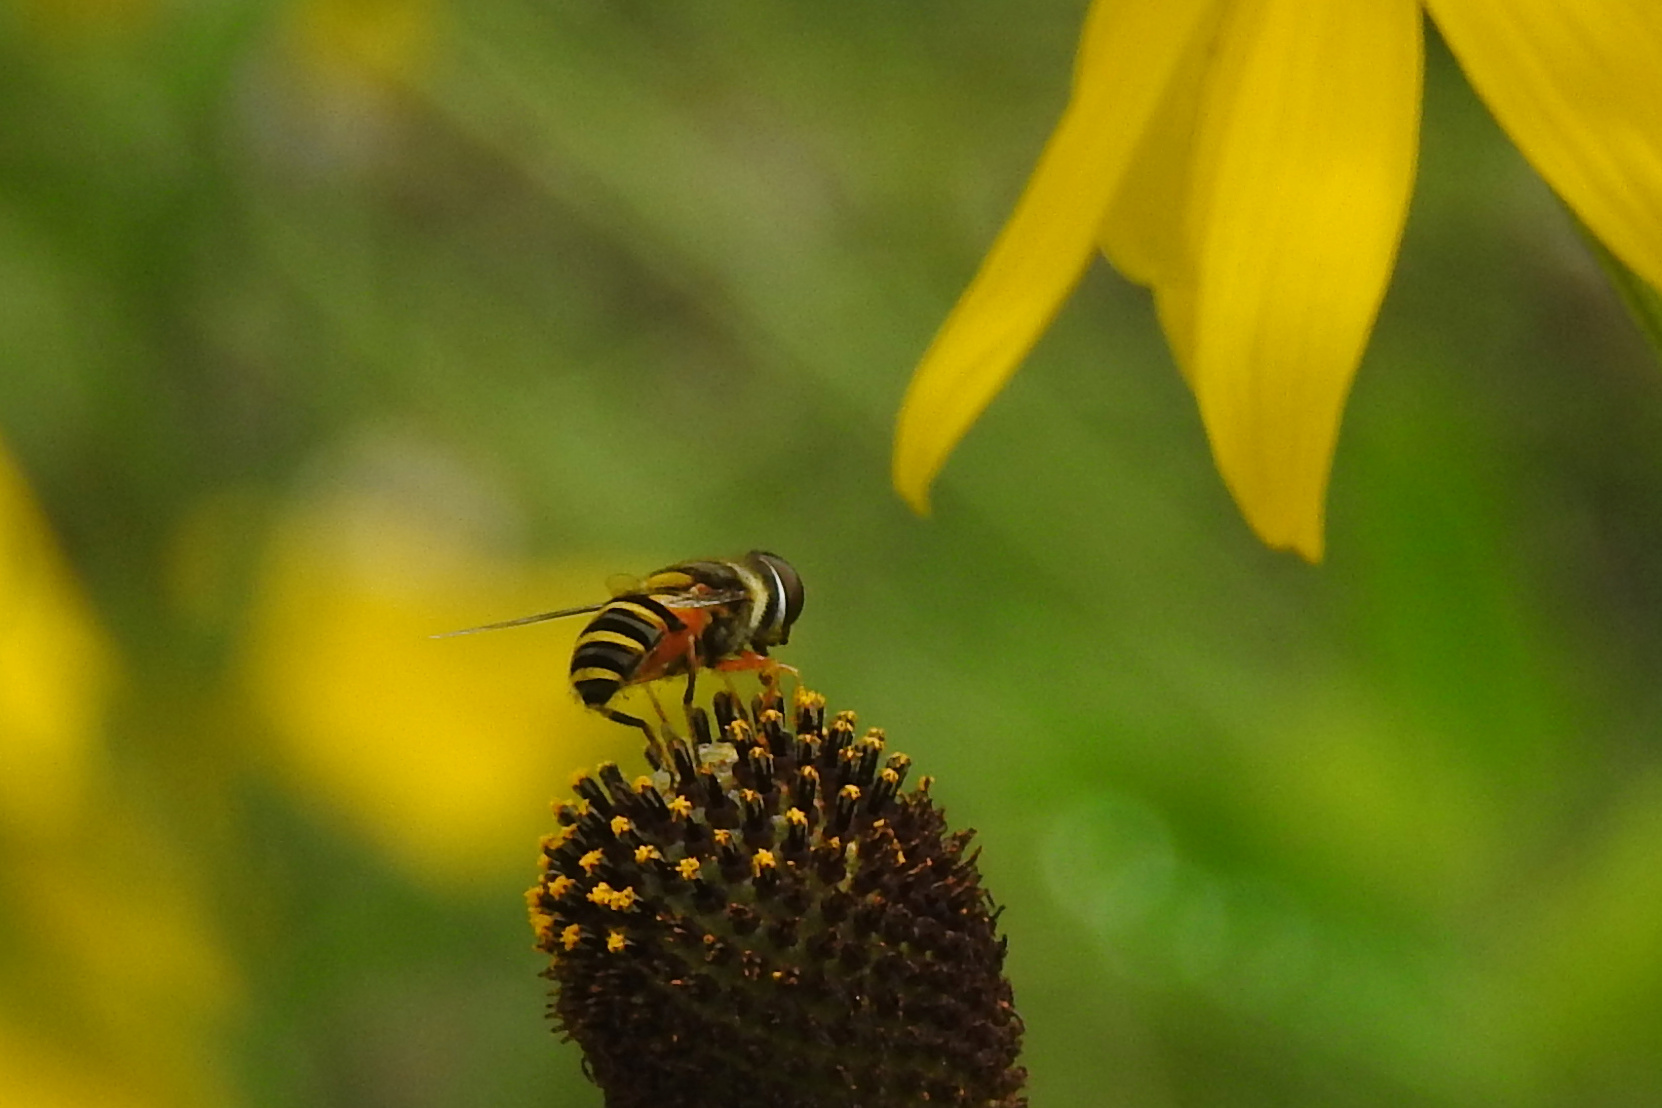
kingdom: Animalia
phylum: Arthropoda
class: Insecta
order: Diptera
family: Syrphidae
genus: Eristalis
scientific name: Eristalis transversa
